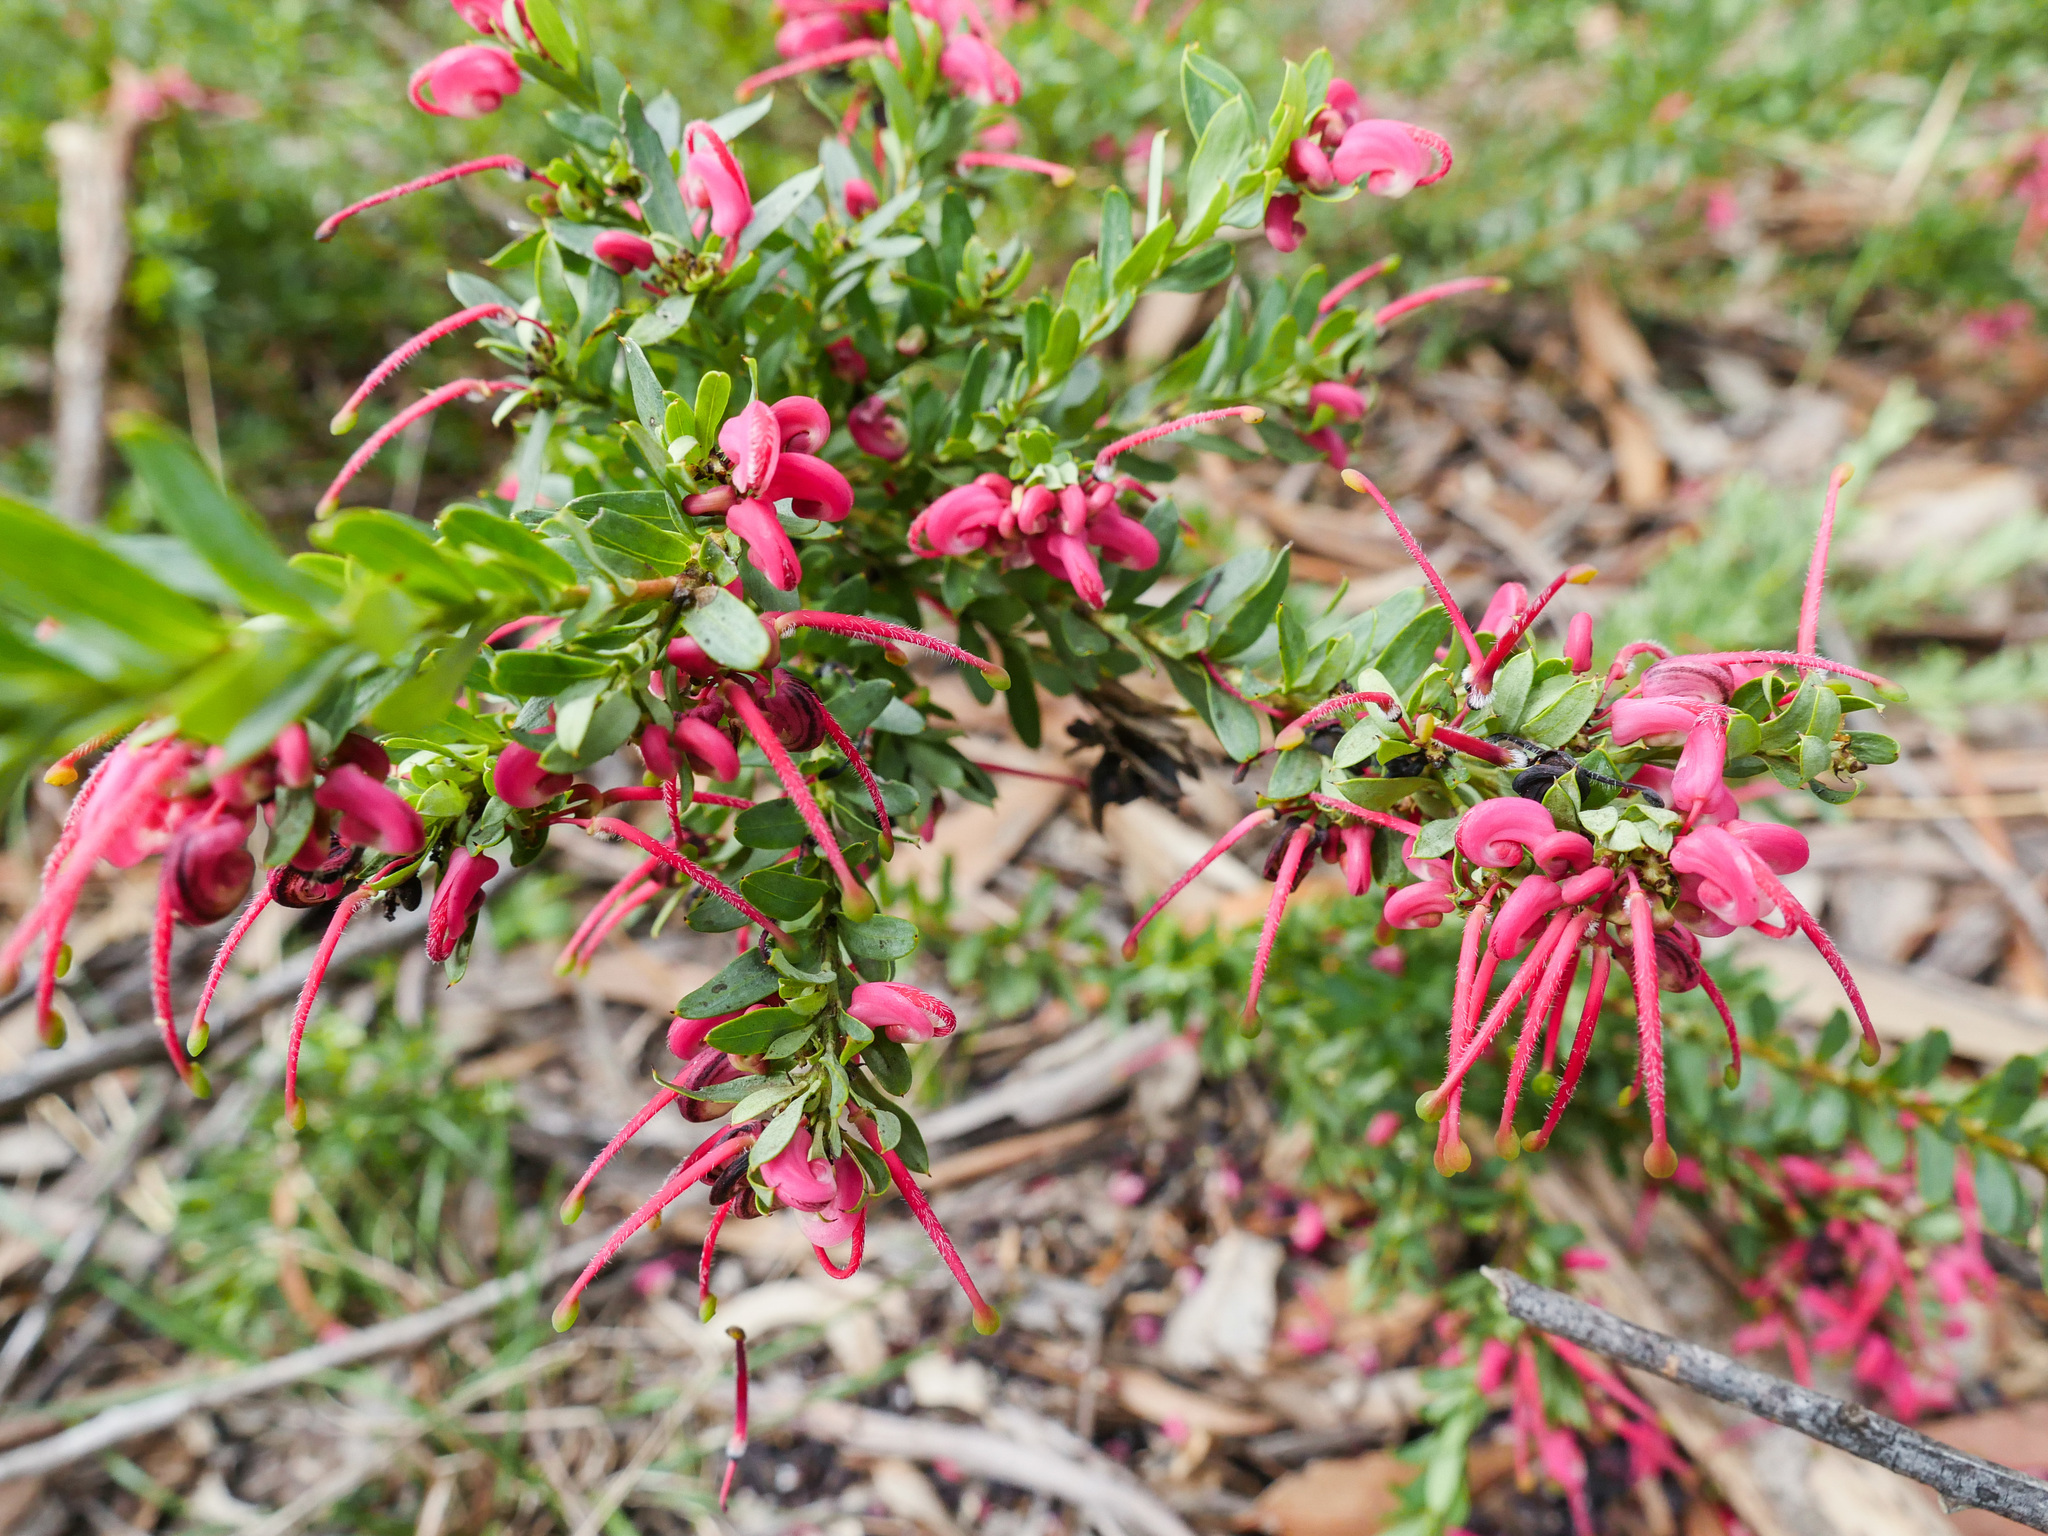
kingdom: Plantae
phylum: Tracheophyta
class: Magnoliopsida
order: Proteales
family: Proteaceae
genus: Grevillea
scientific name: Grevillea baueri
